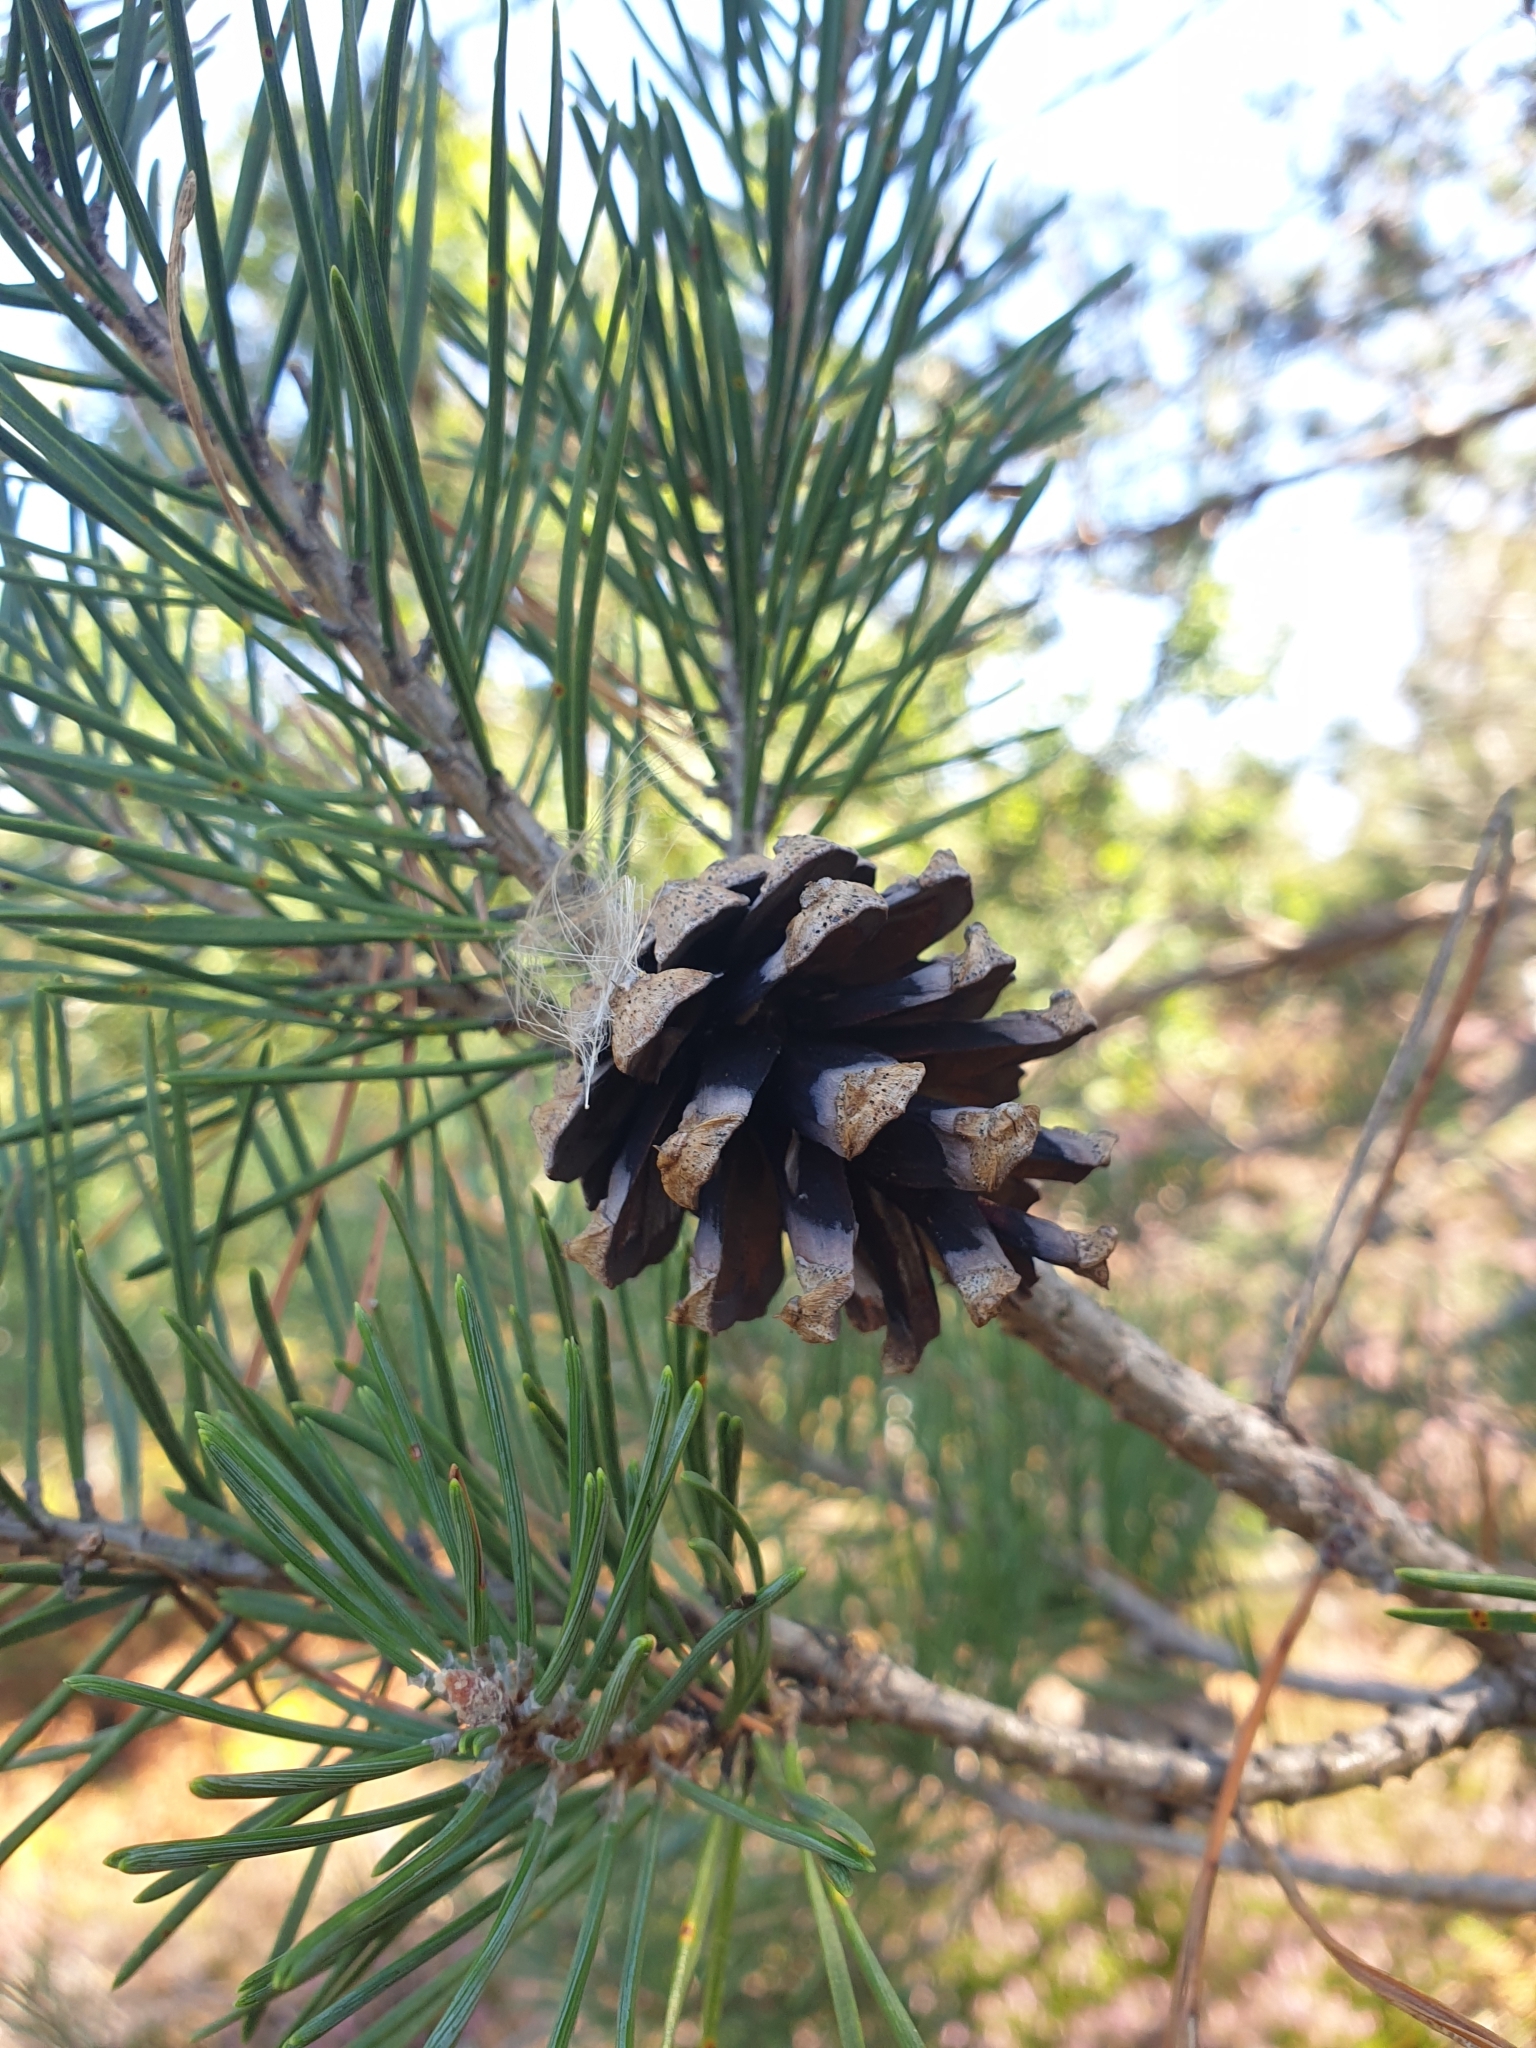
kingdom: Plantae
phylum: Tracheophyta
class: Pinopsida
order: Pinales
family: Pinaceae
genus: Pinus
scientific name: Pinus sylvestris
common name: Scots pine
